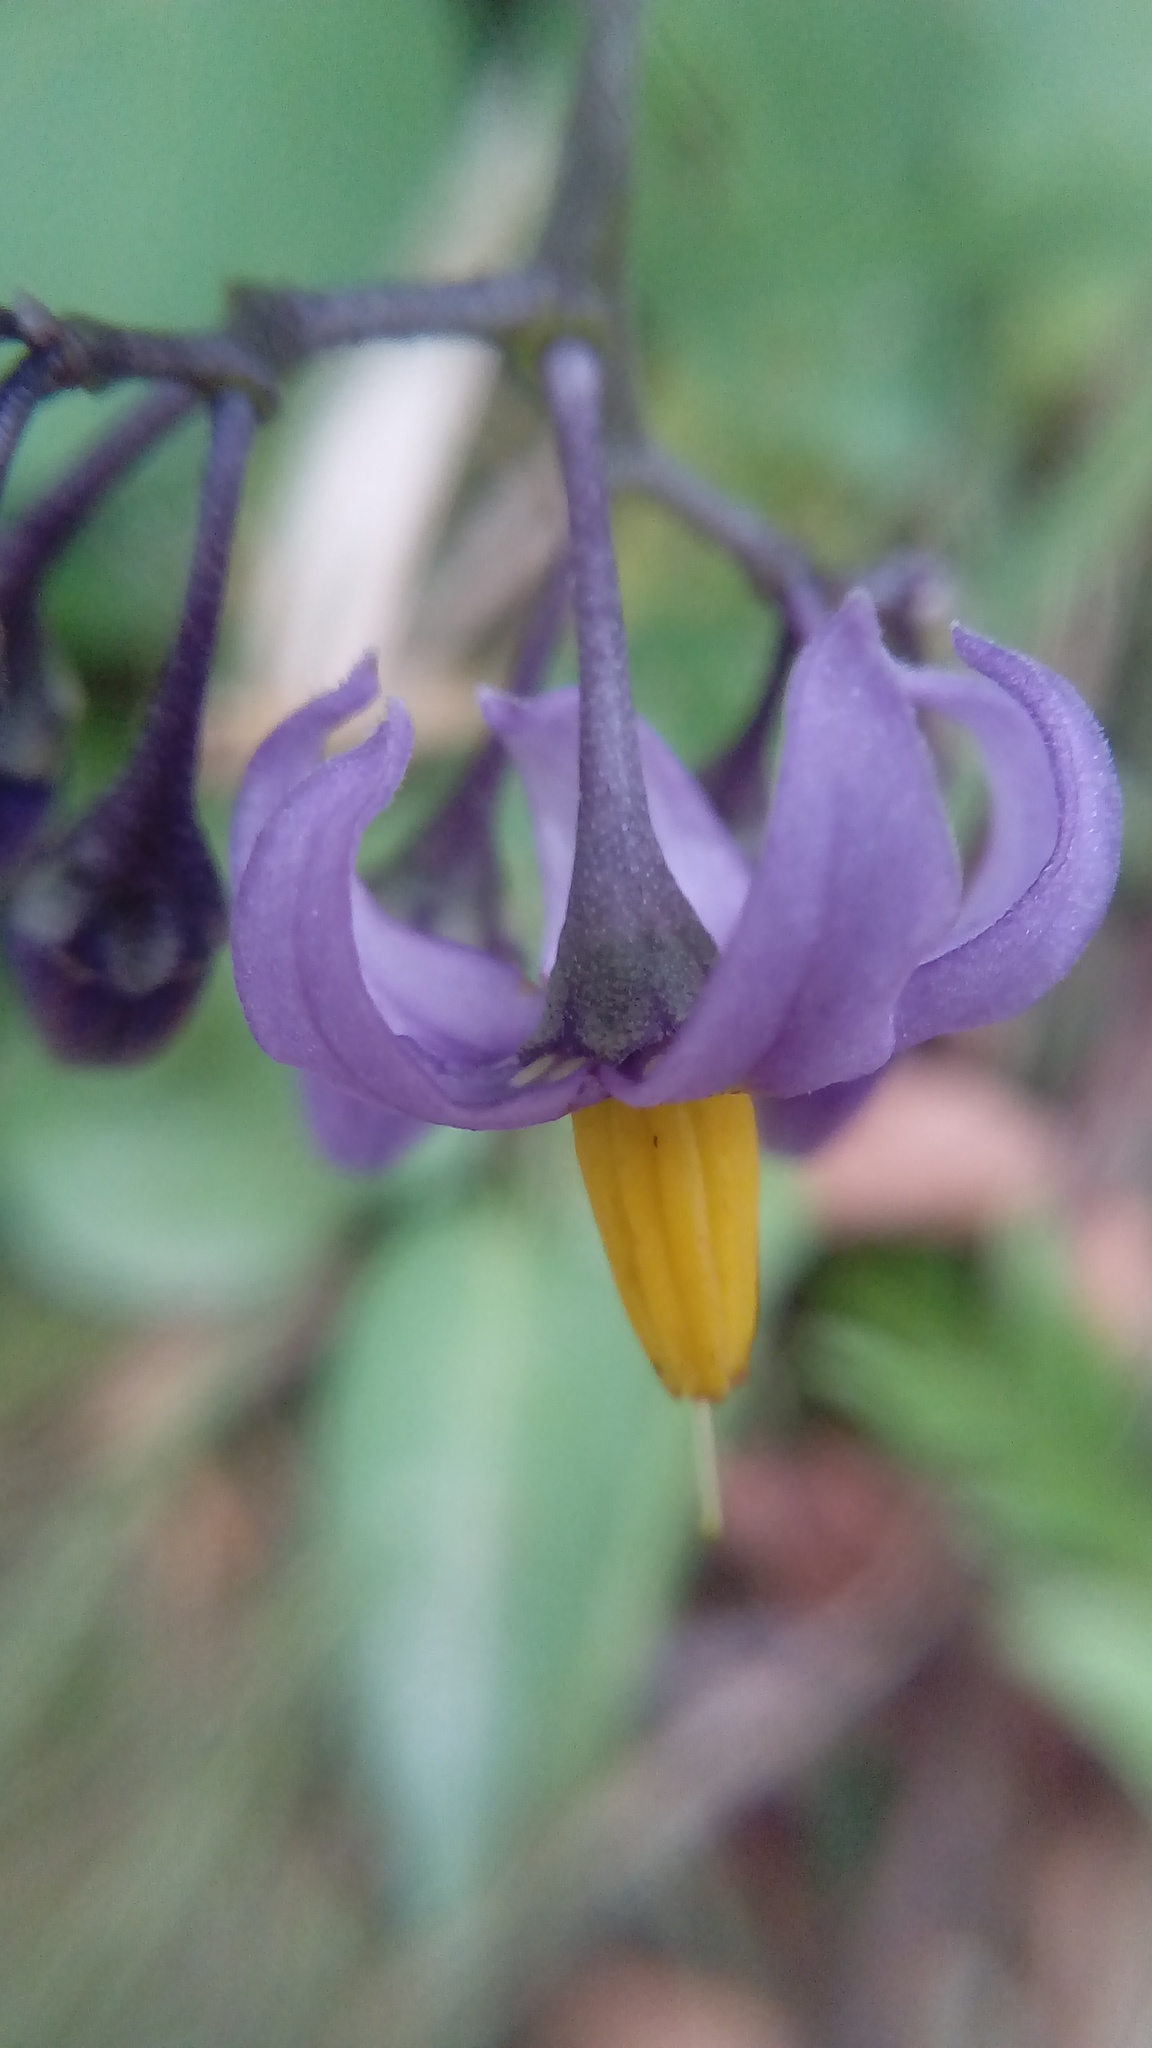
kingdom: Plantae
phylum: Tracheophyta
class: Magnoliopsida
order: Solanales
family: Solanaceae
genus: Solanum
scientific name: Solanum dulcamara
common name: Climbing nightshade
